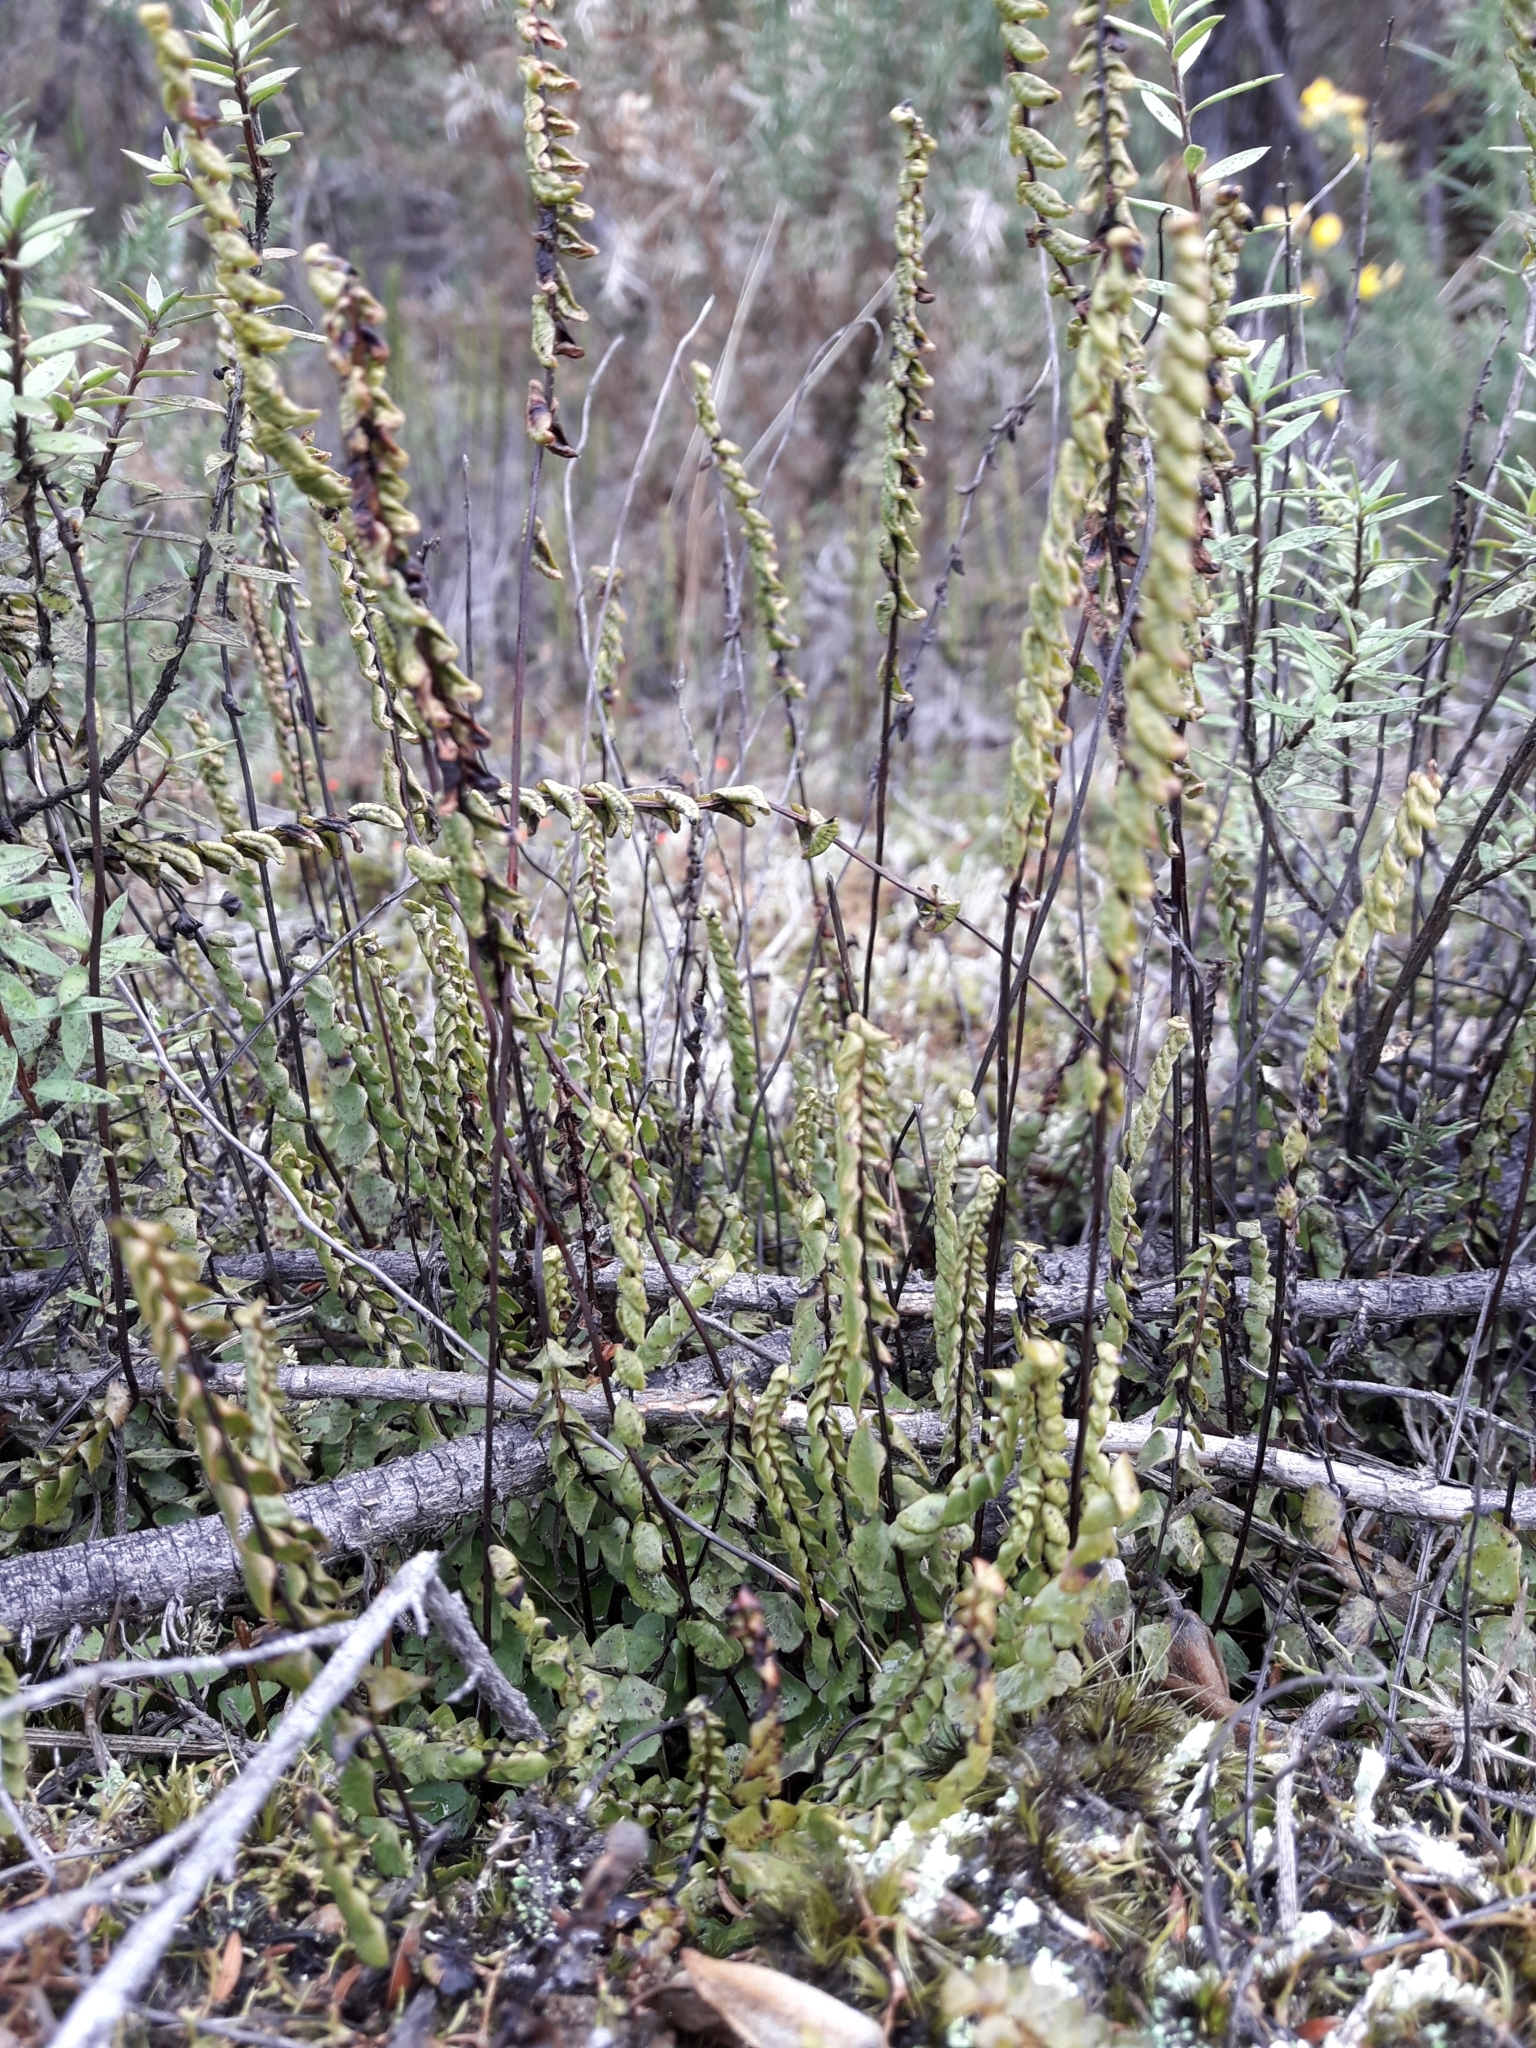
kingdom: Plantae
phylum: Tracheophyta
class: Polypodiopsida
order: Polypodiales
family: Lindsaeaceae
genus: Lindsaea
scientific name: Lindsaea linearis
